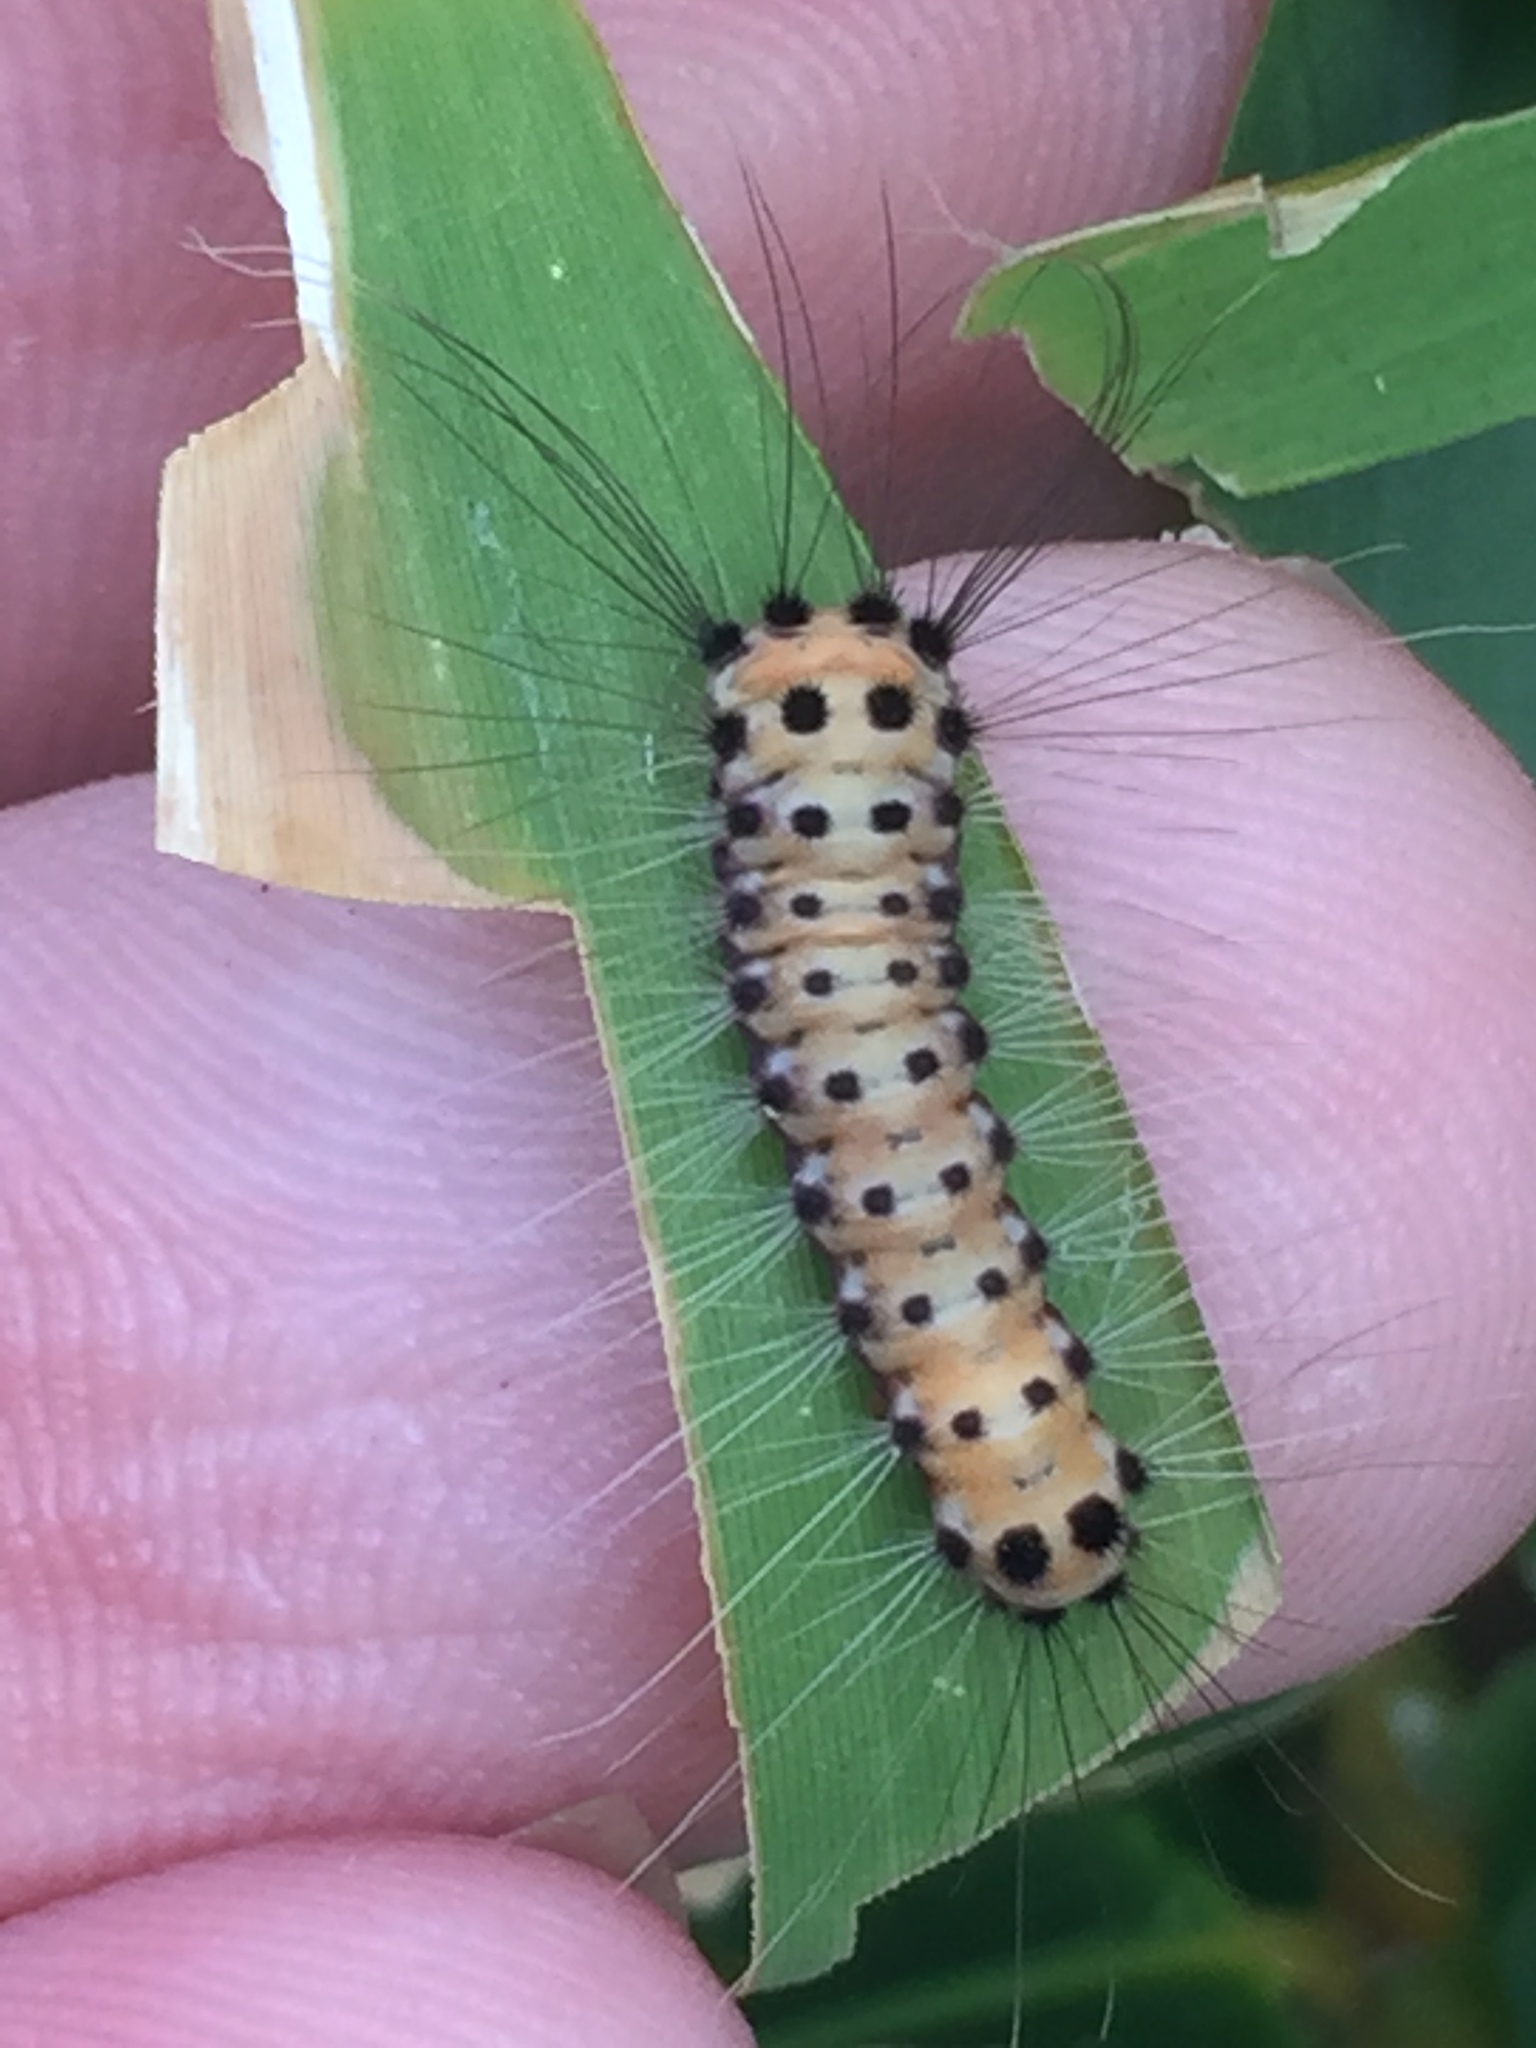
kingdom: Animalia
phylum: Arthropoda
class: Insecta
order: Lepidoptera
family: Zygaenidae
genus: Artona
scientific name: Artona martini
